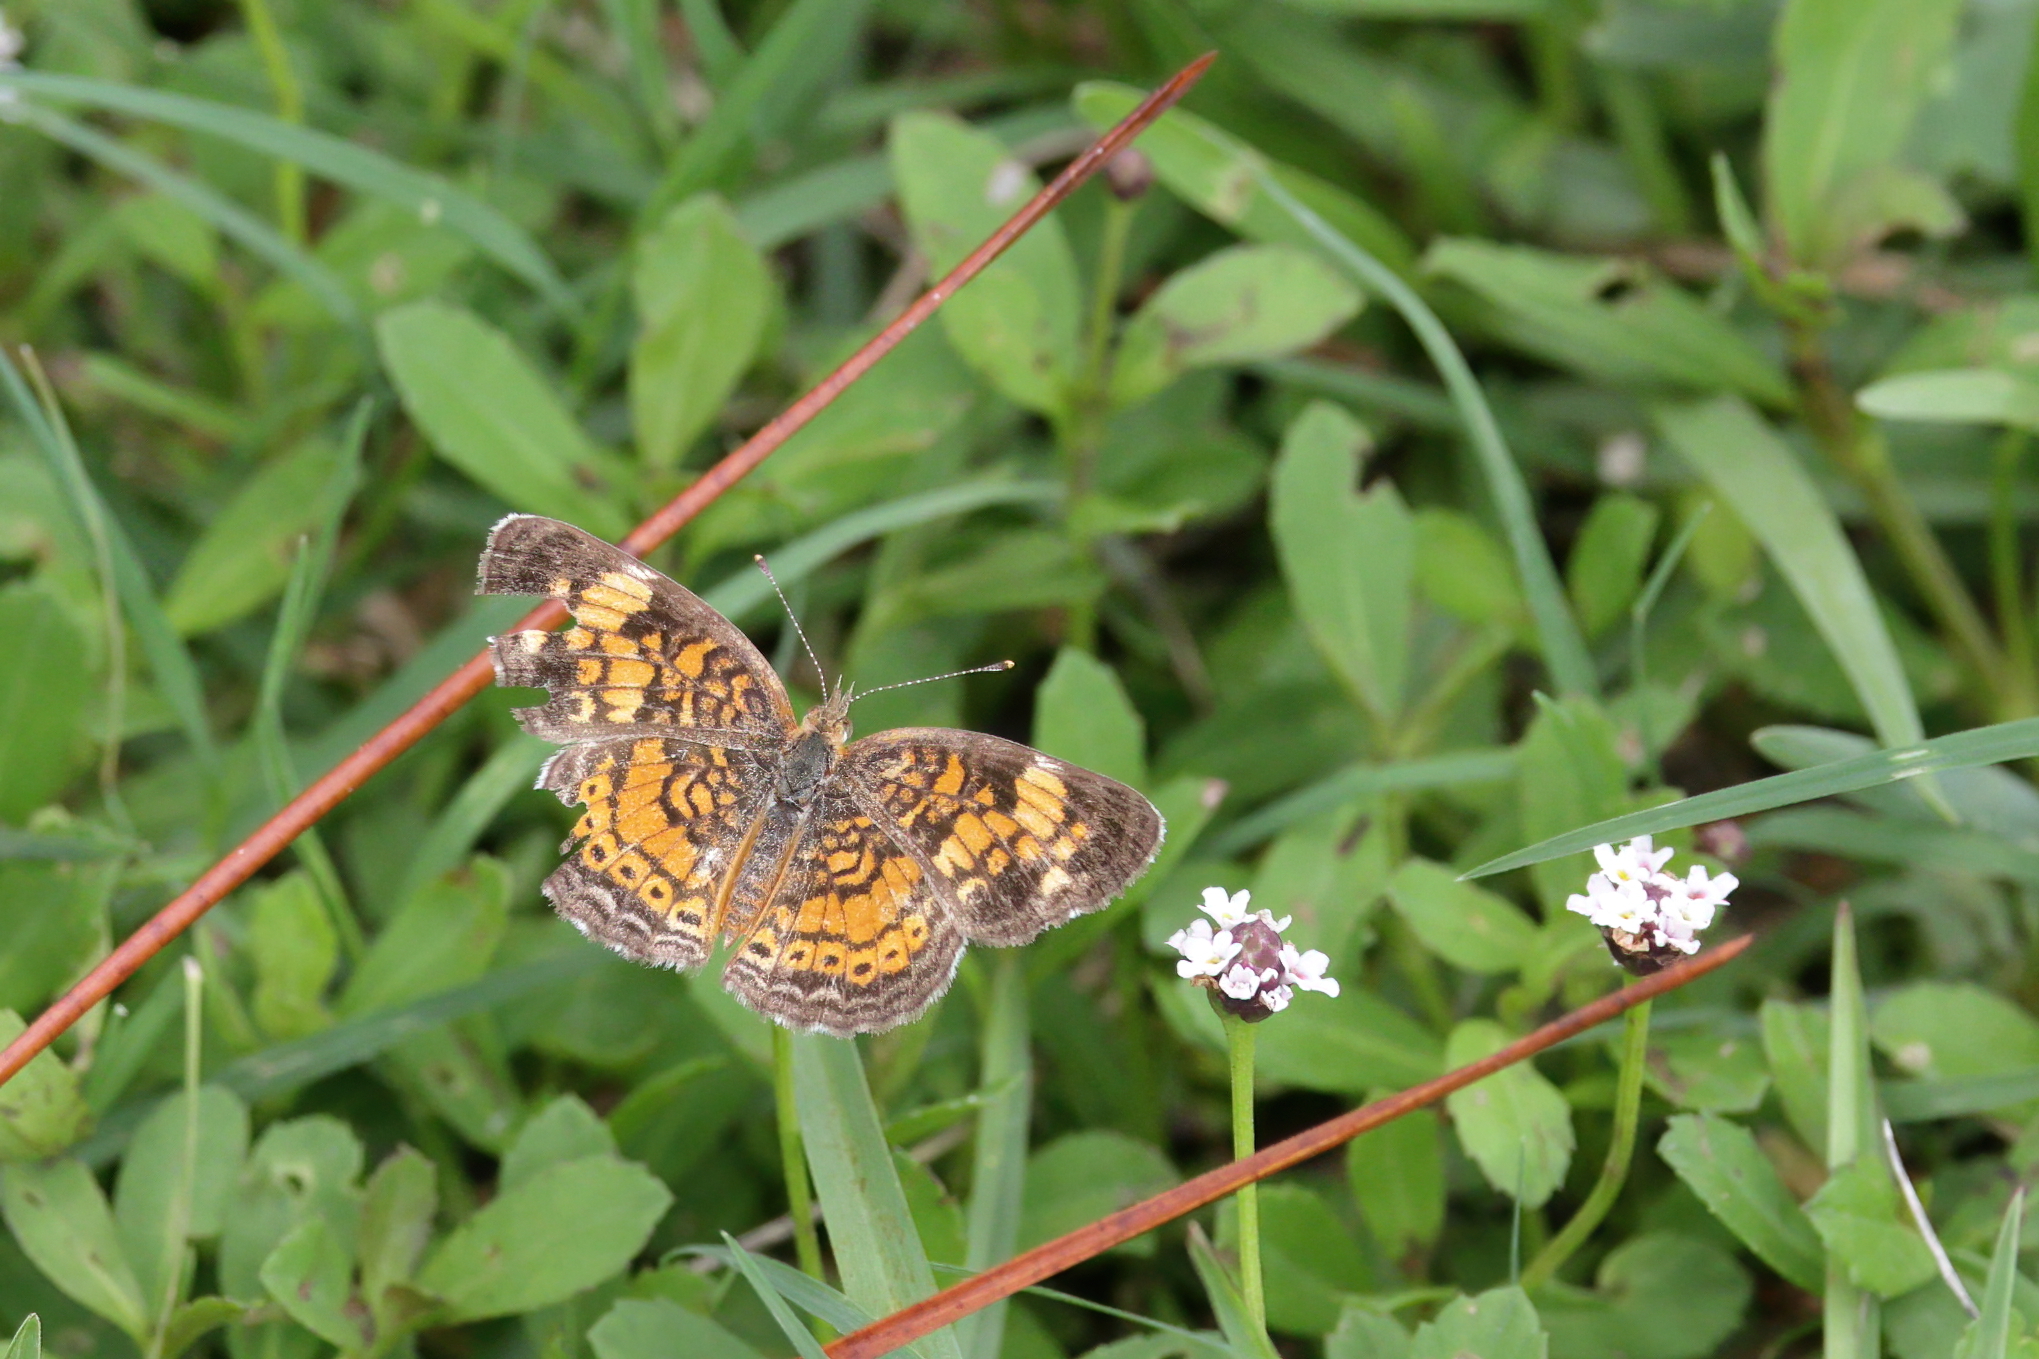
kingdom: Animalia
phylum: Arthropoda
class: Insecta
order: Lepidoptera
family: Nymphalidae
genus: Phyciodes
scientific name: Phyciodes tharos
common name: Pearl crescent
